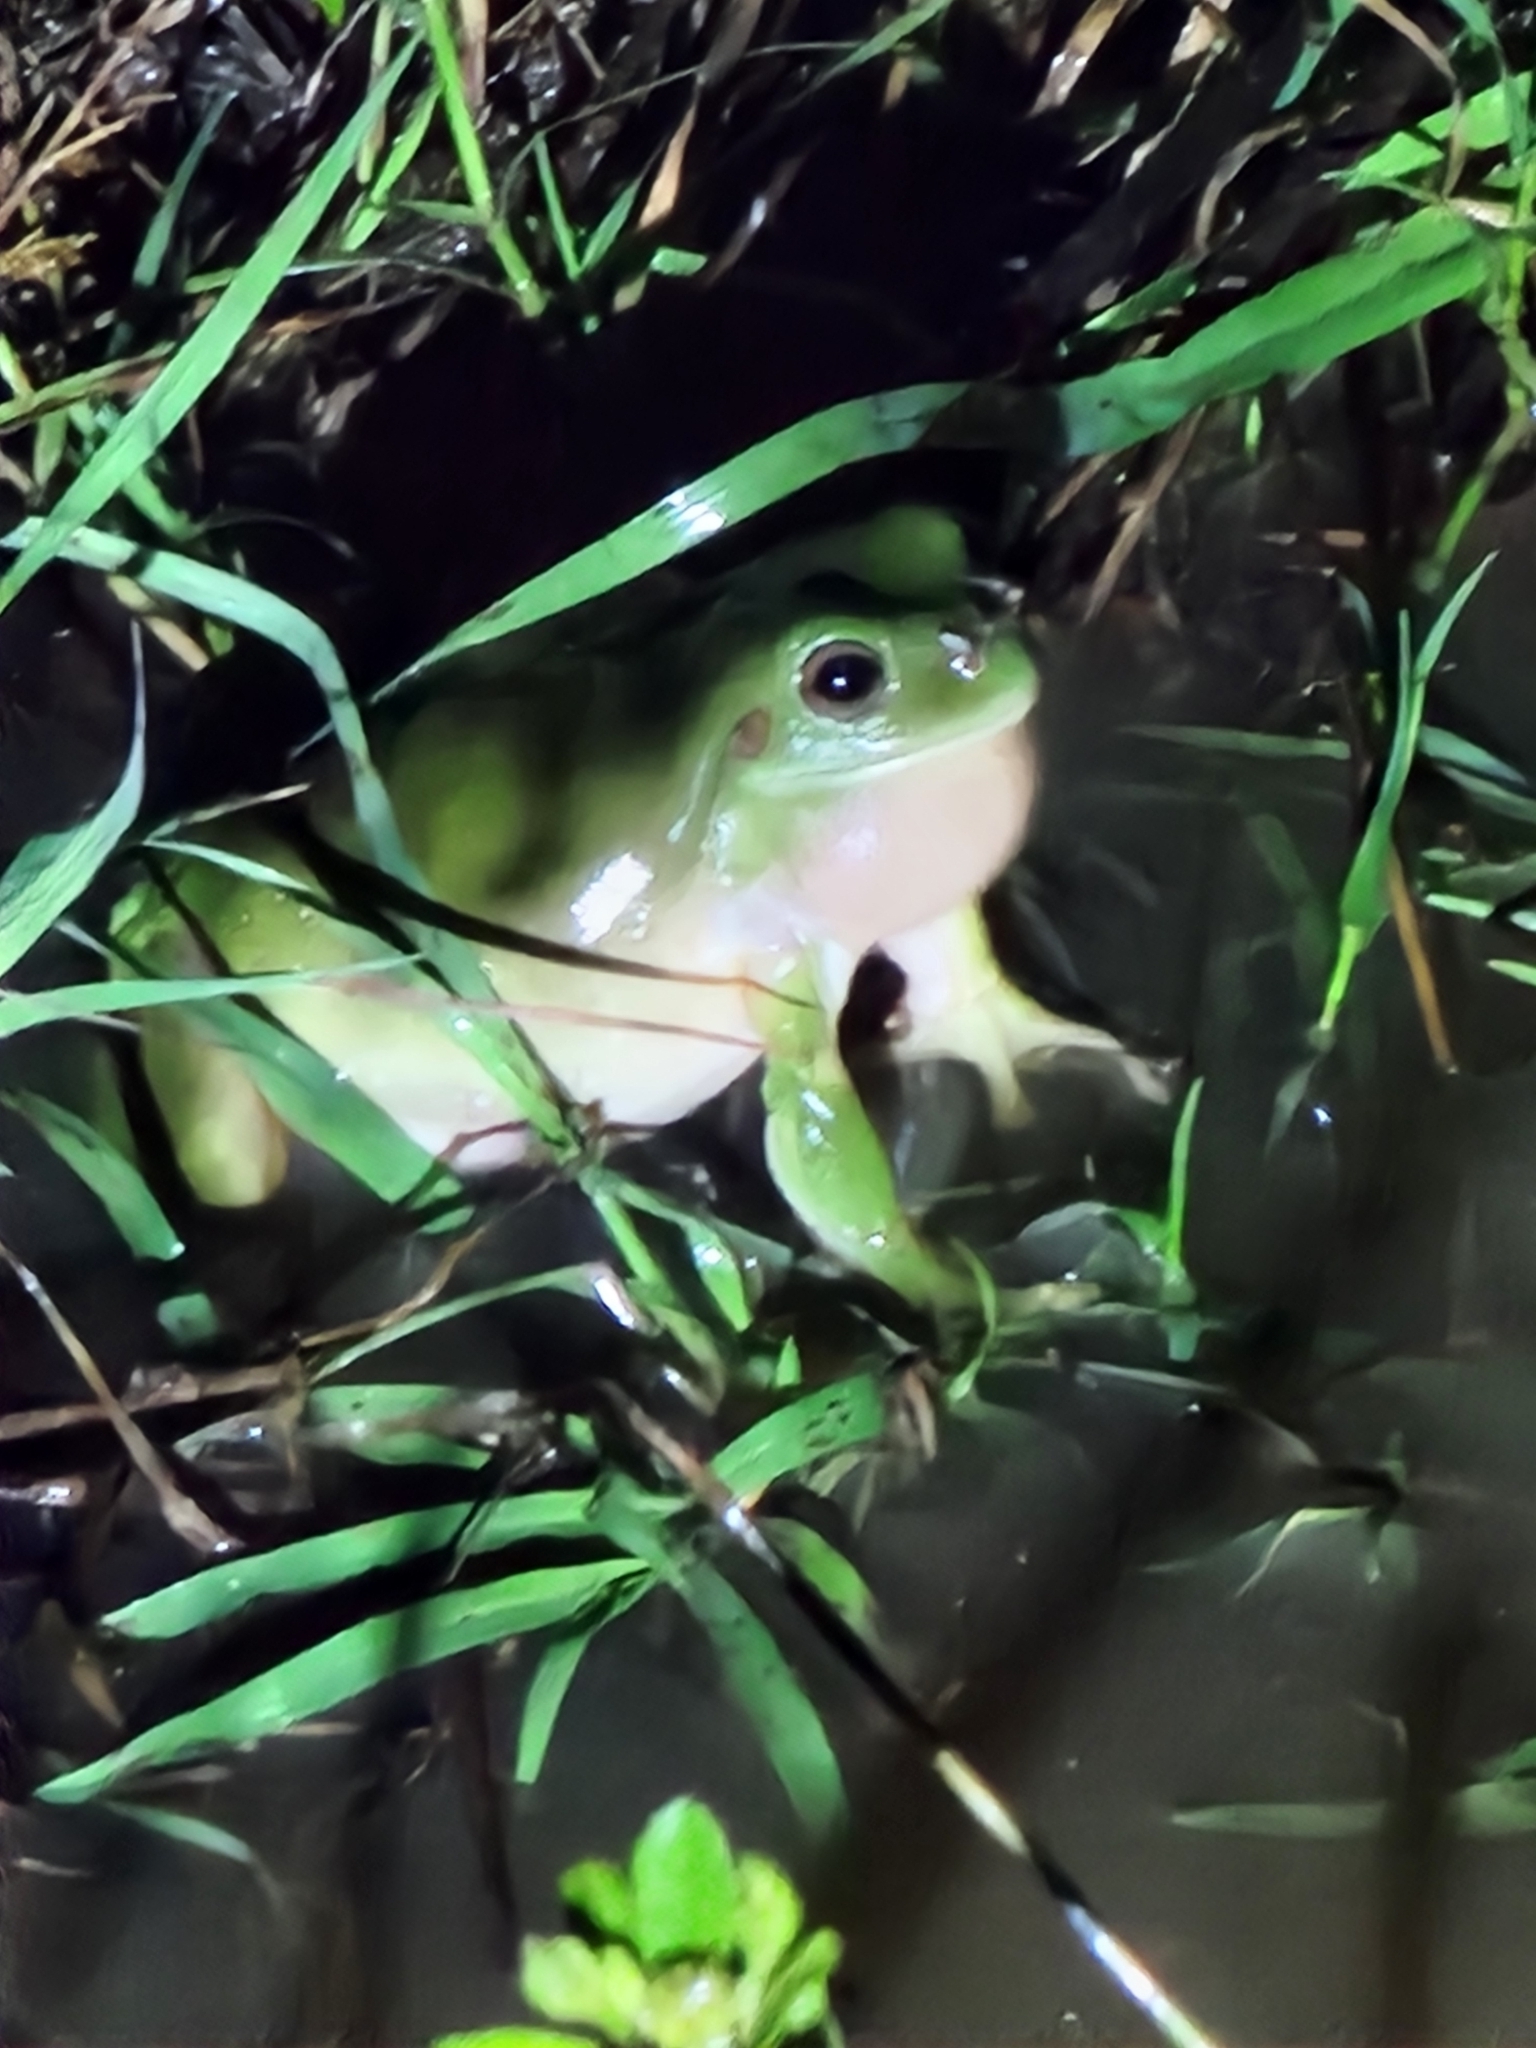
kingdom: Animalia
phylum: Chordata
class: Amphibia
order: Anura
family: Pelodryadidae
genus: Ranoidea
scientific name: Ranoidea caerulea
